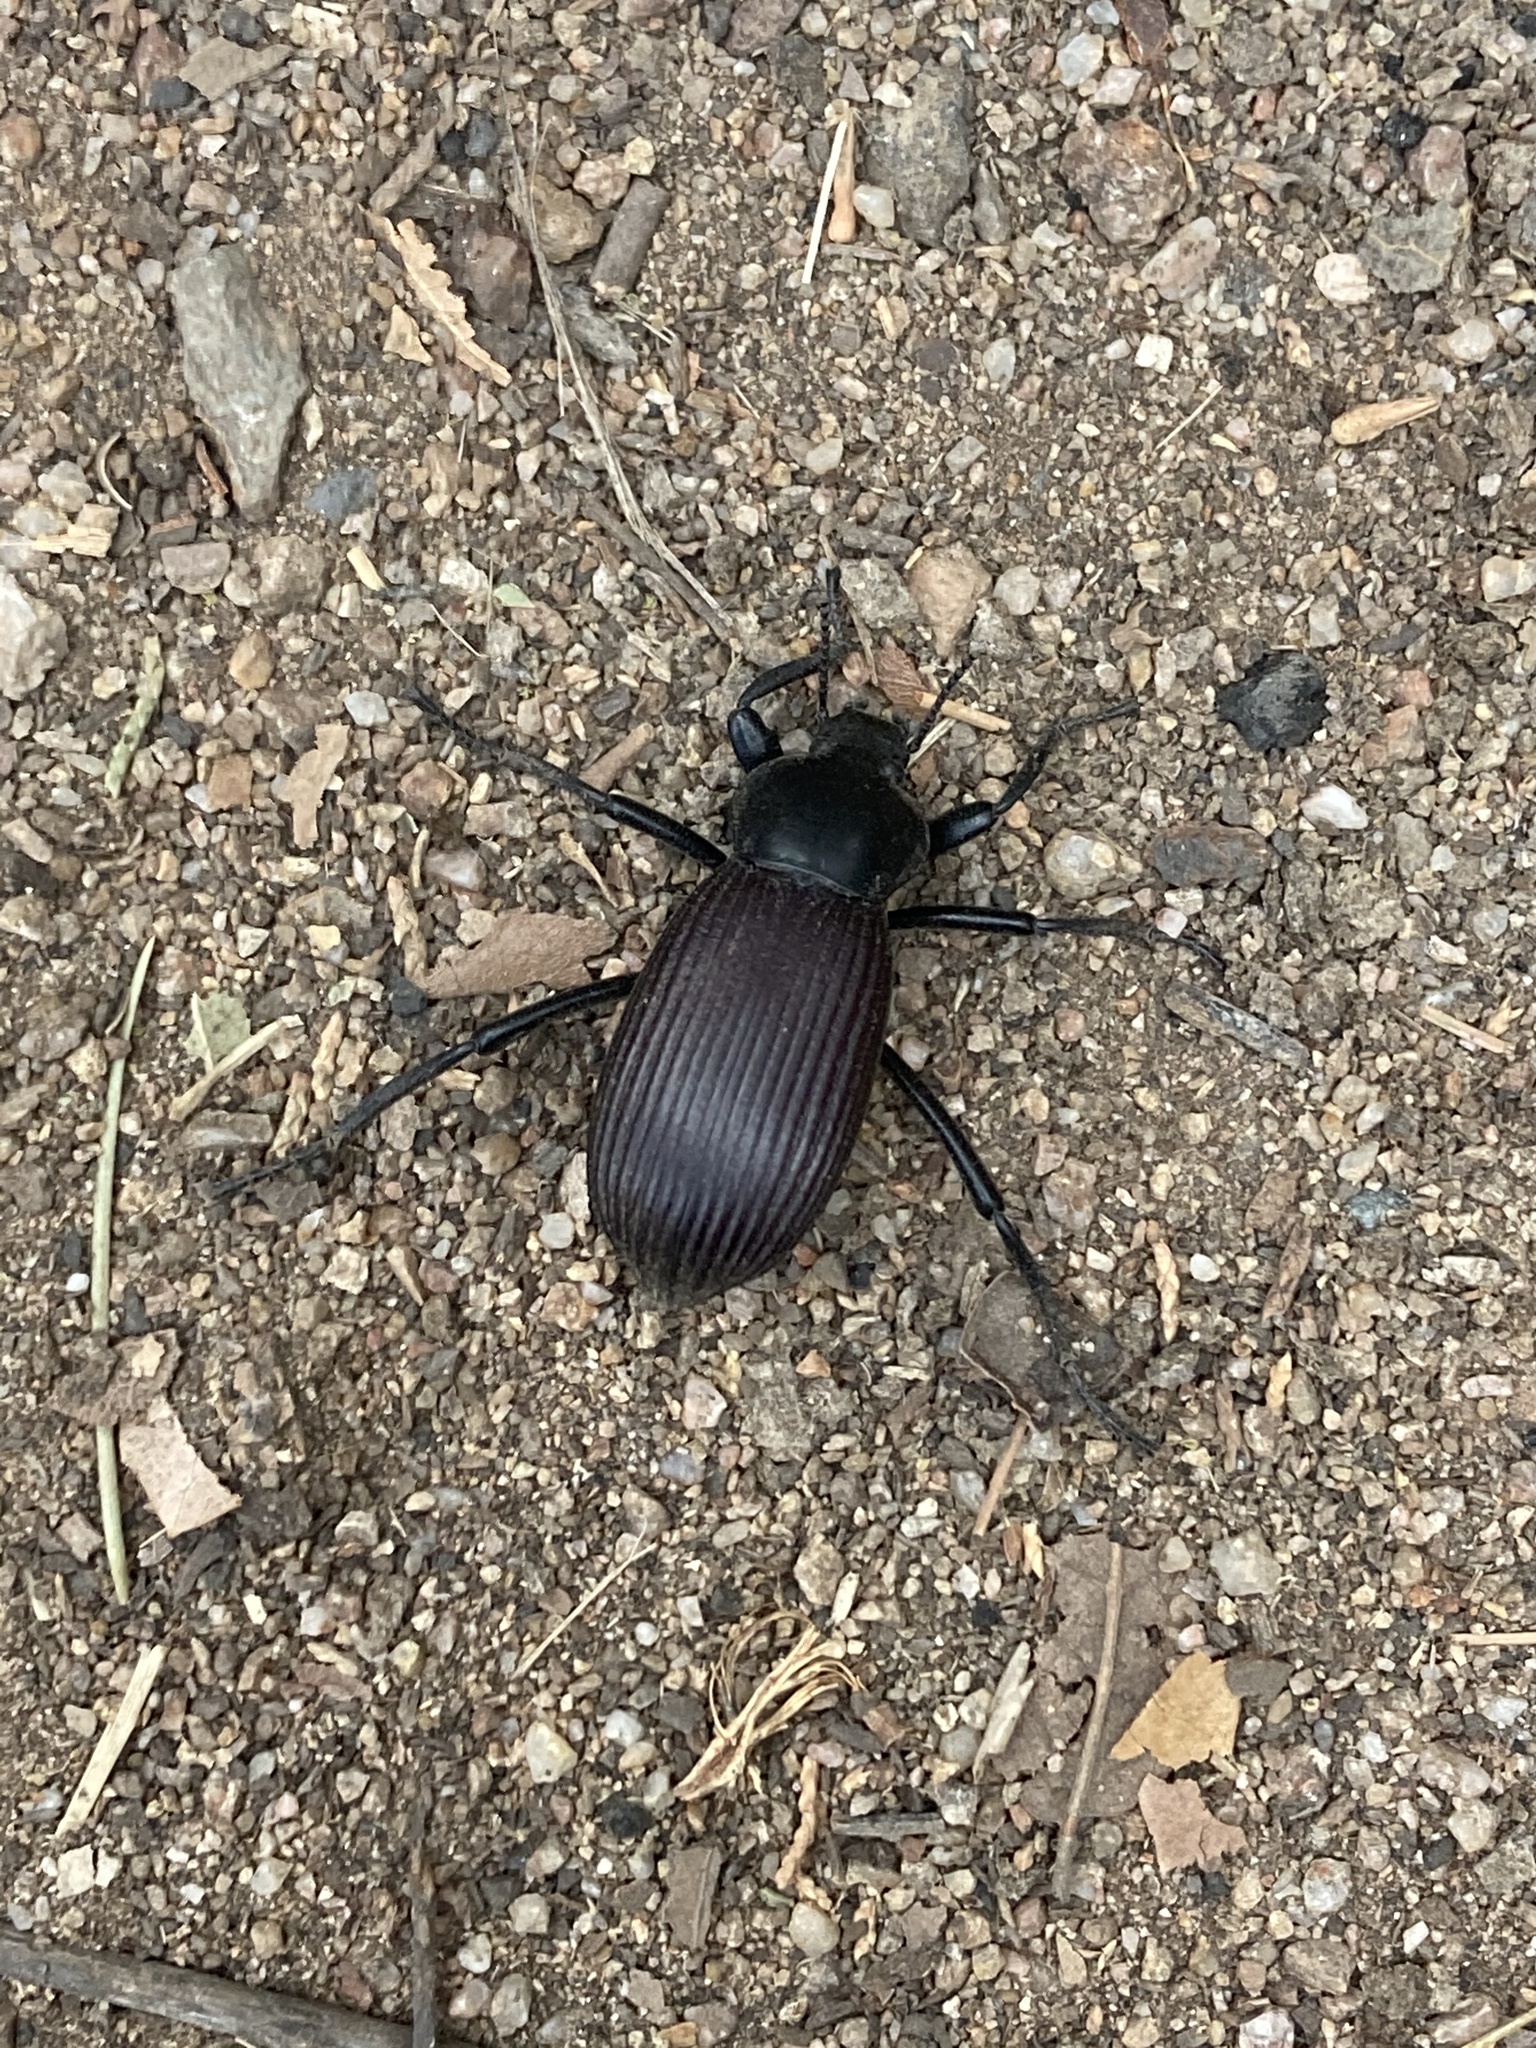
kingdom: Animalia
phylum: Arthropoda
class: Insecta
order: Coleoptera
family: Tenebrionidae
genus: Eleodes
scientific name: Eleodes obscura
